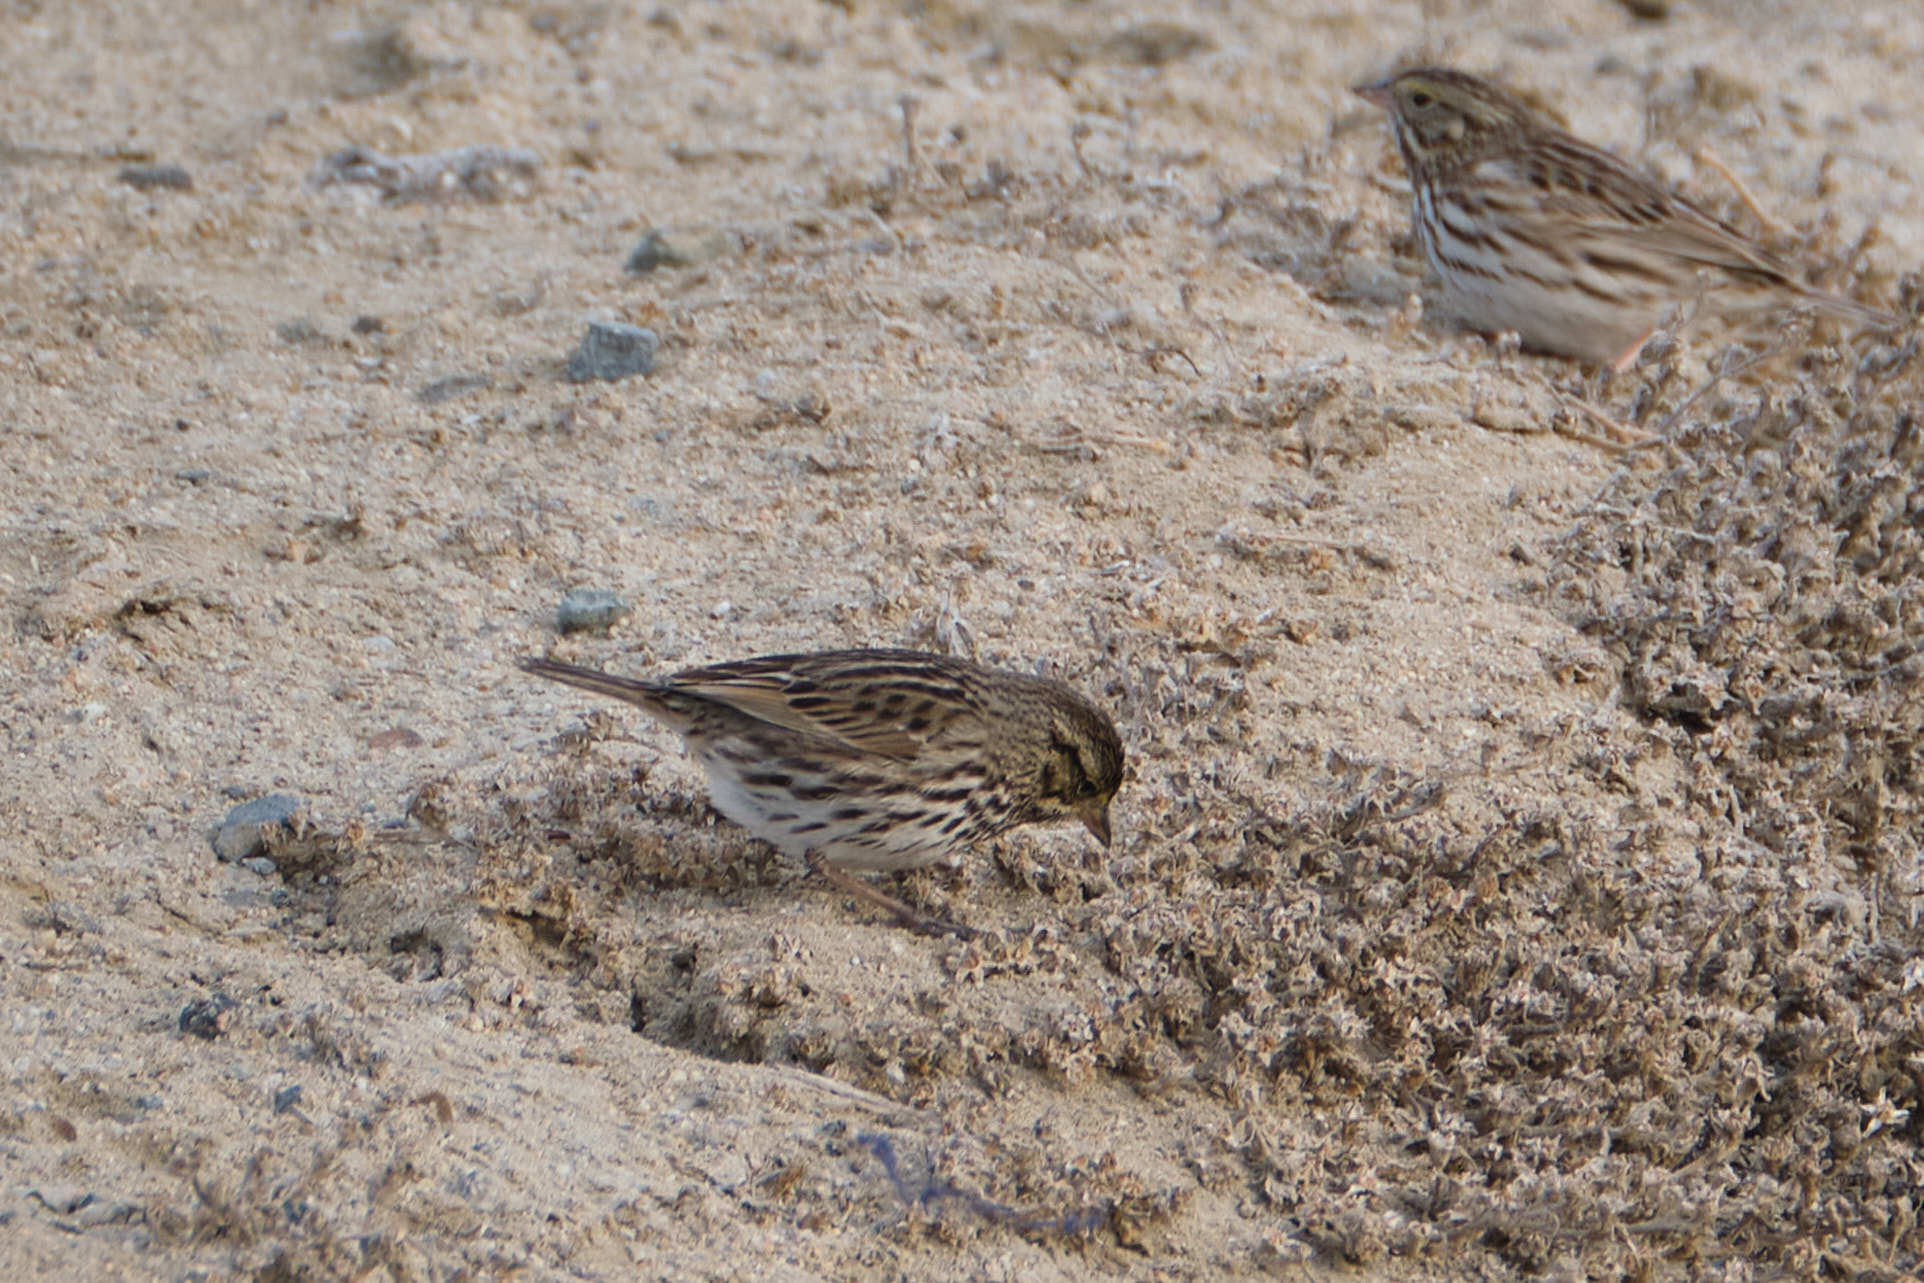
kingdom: Animalia
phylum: Chordata
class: Aves
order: Passeriformes
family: Passerellidae
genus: Passerculus
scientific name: Passerculus sandwichensis
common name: Savannah sparrow
